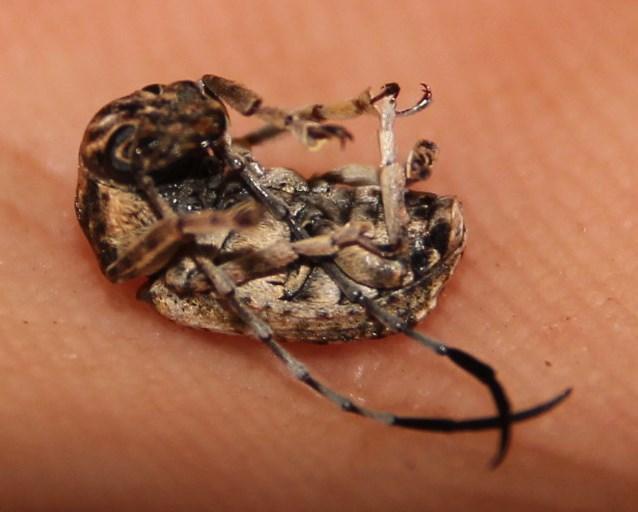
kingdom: Animalia
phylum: Arthropoda
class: Insecta
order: Coleoptera
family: Anthribidae
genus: Phloeobius
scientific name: Phloeobius cordiger
